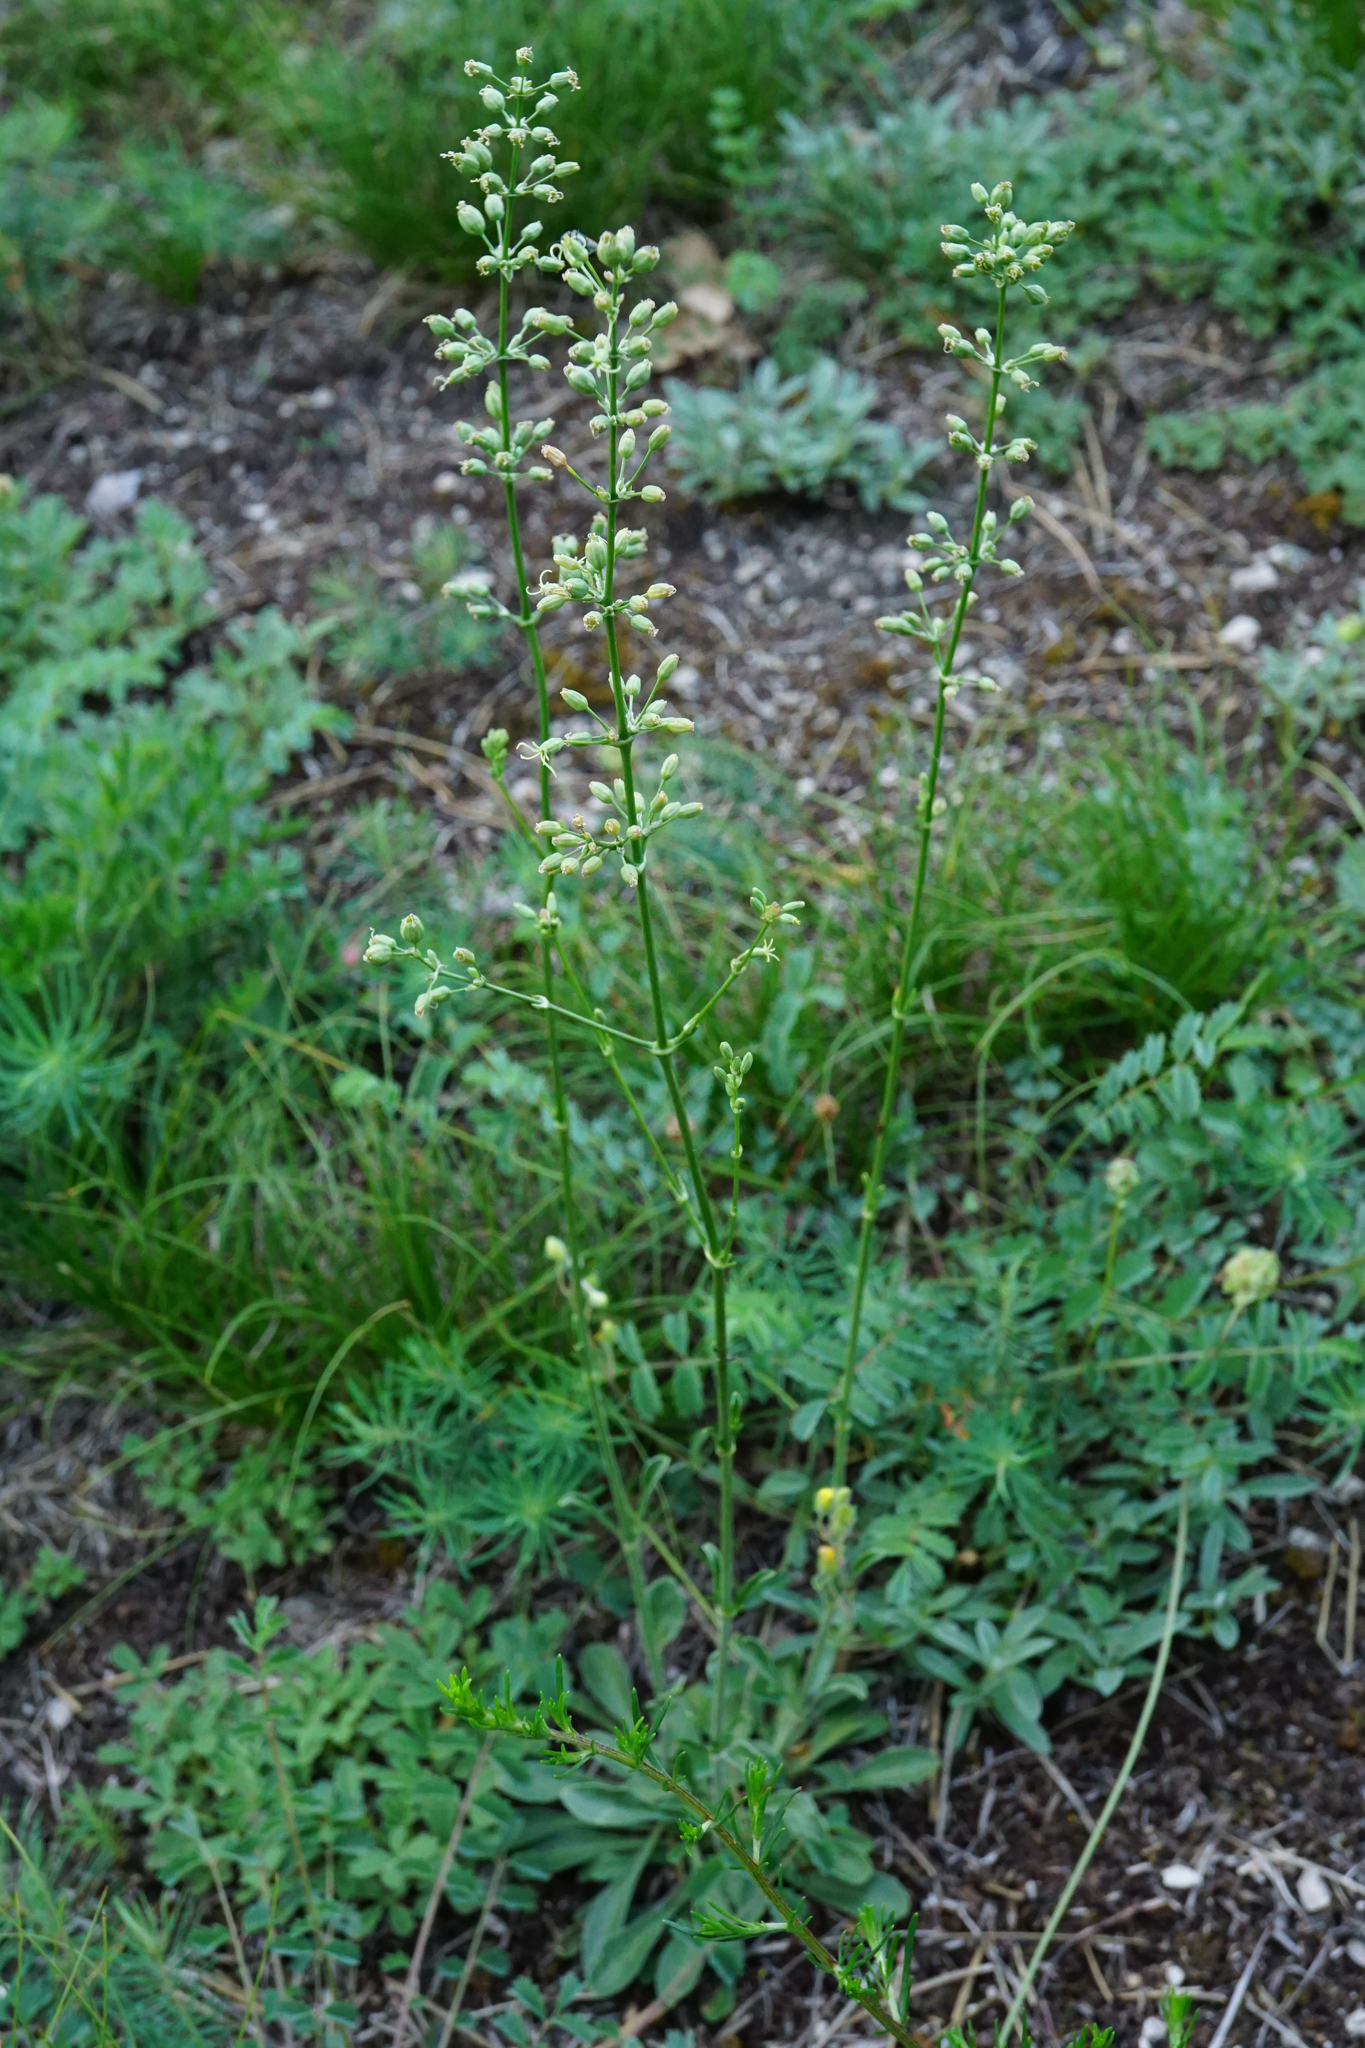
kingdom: Plantae
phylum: Tracheophyta
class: Magnoliopsida
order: Caryophyllales
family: Caryophyllaceae
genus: Silene
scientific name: Silene otites
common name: Spanish catchfly
